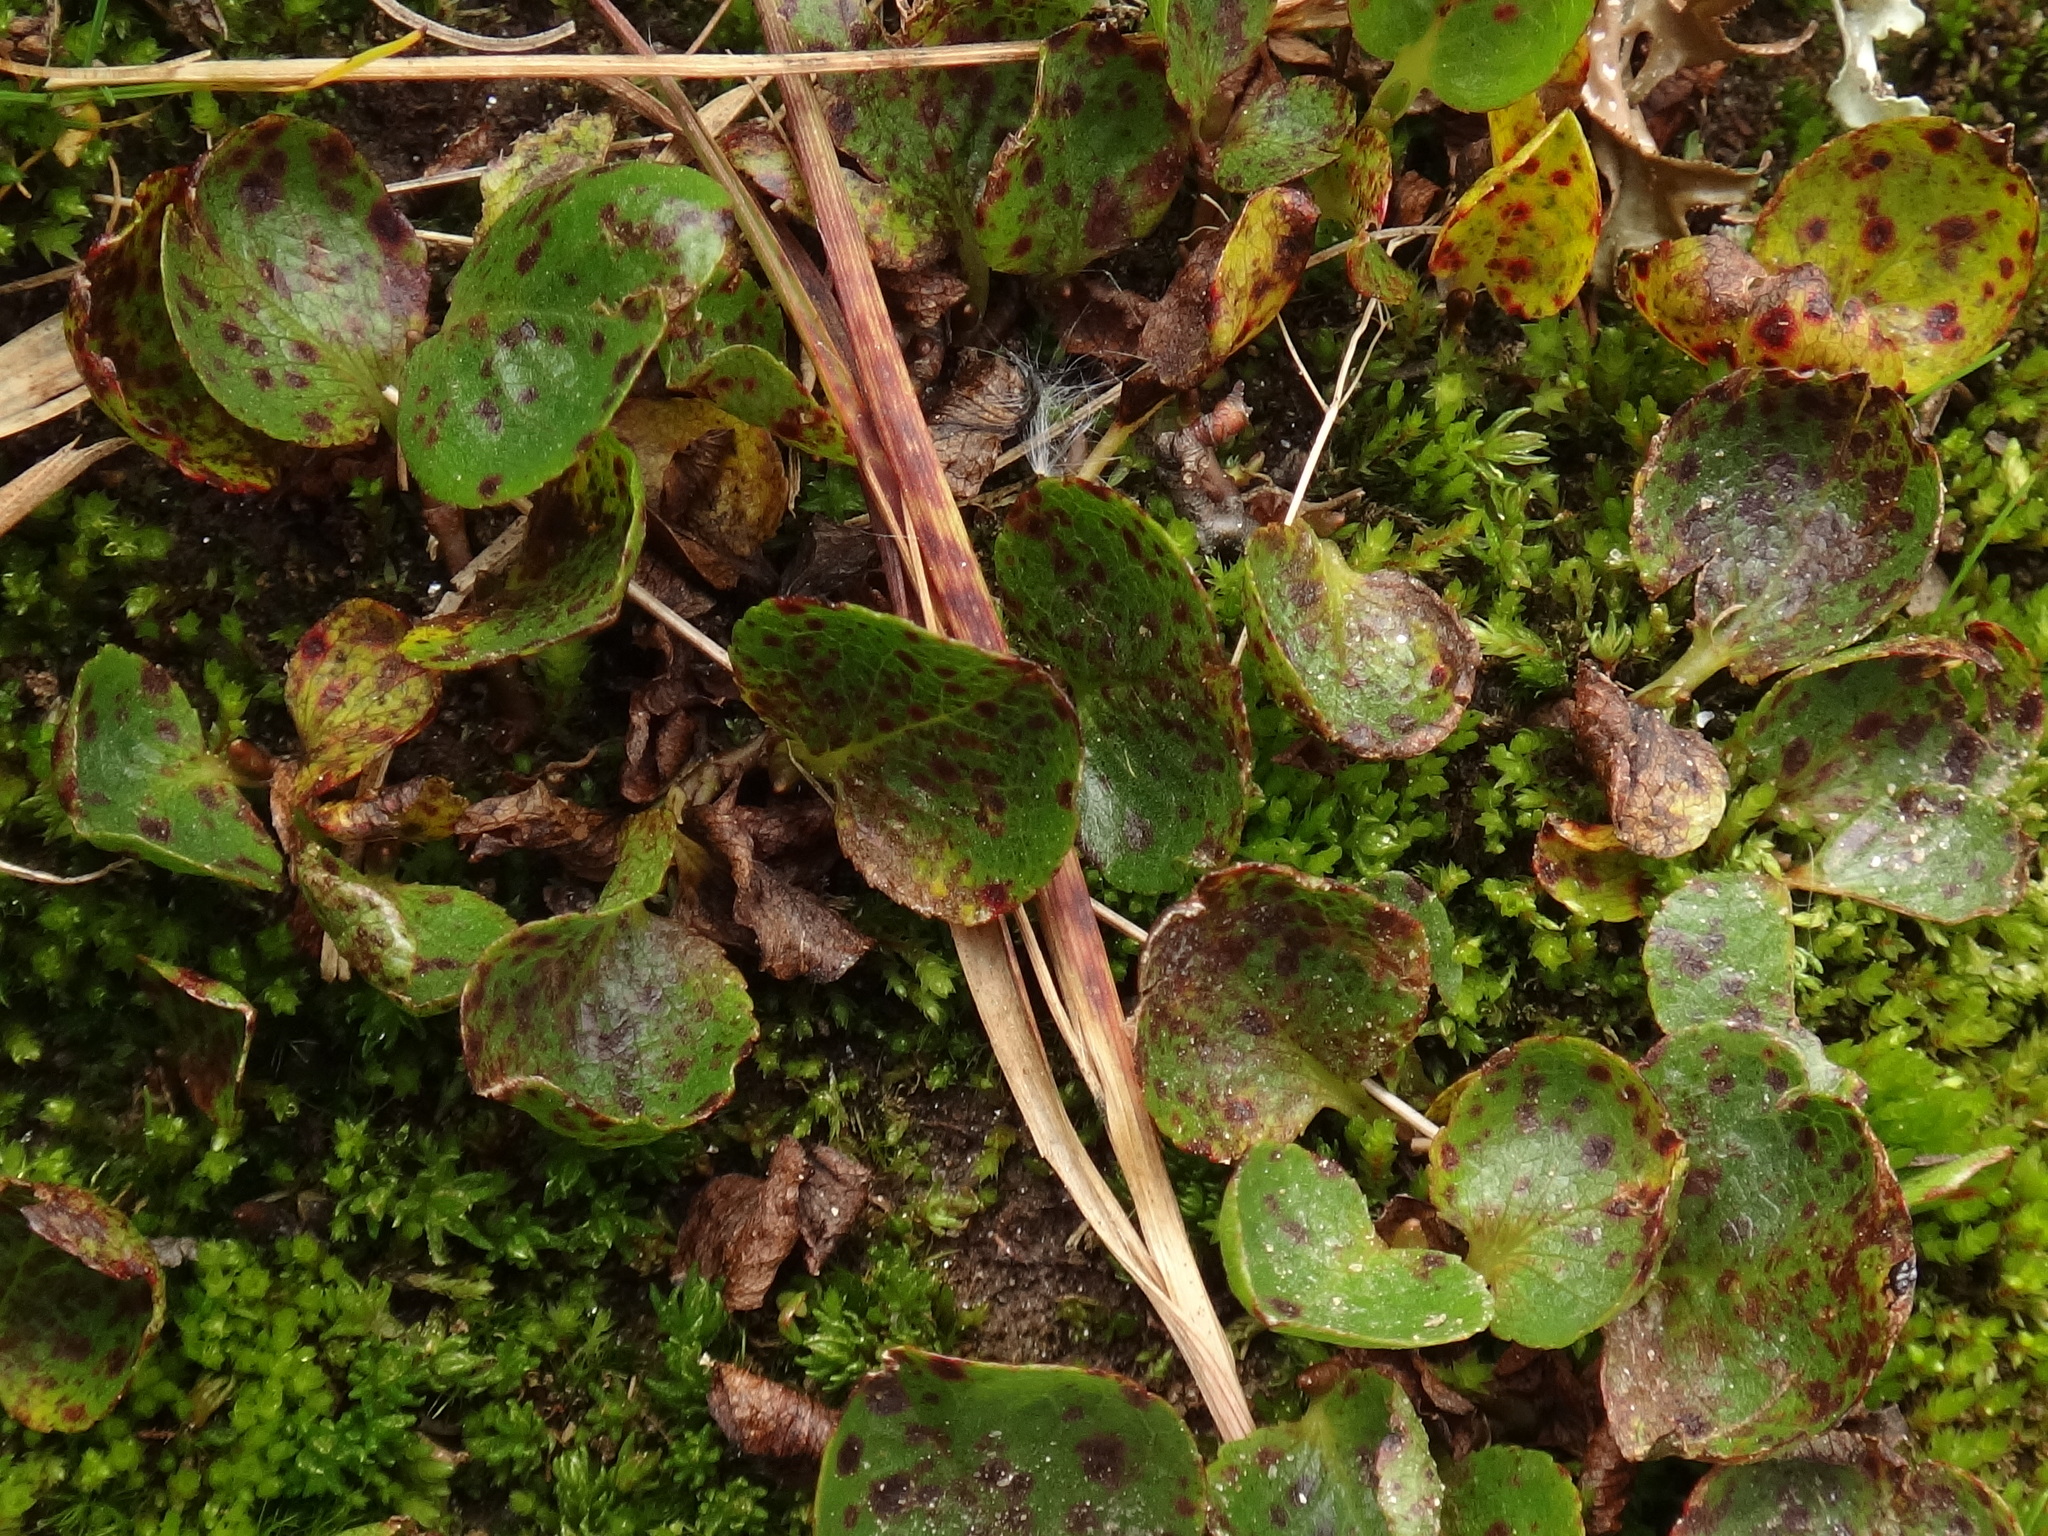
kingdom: Plantae
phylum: Tracheophyta
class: Magnoliopsida
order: Malpighiales
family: Salicaceae
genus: Salix
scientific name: Salix herbacea
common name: Dwarf willow
